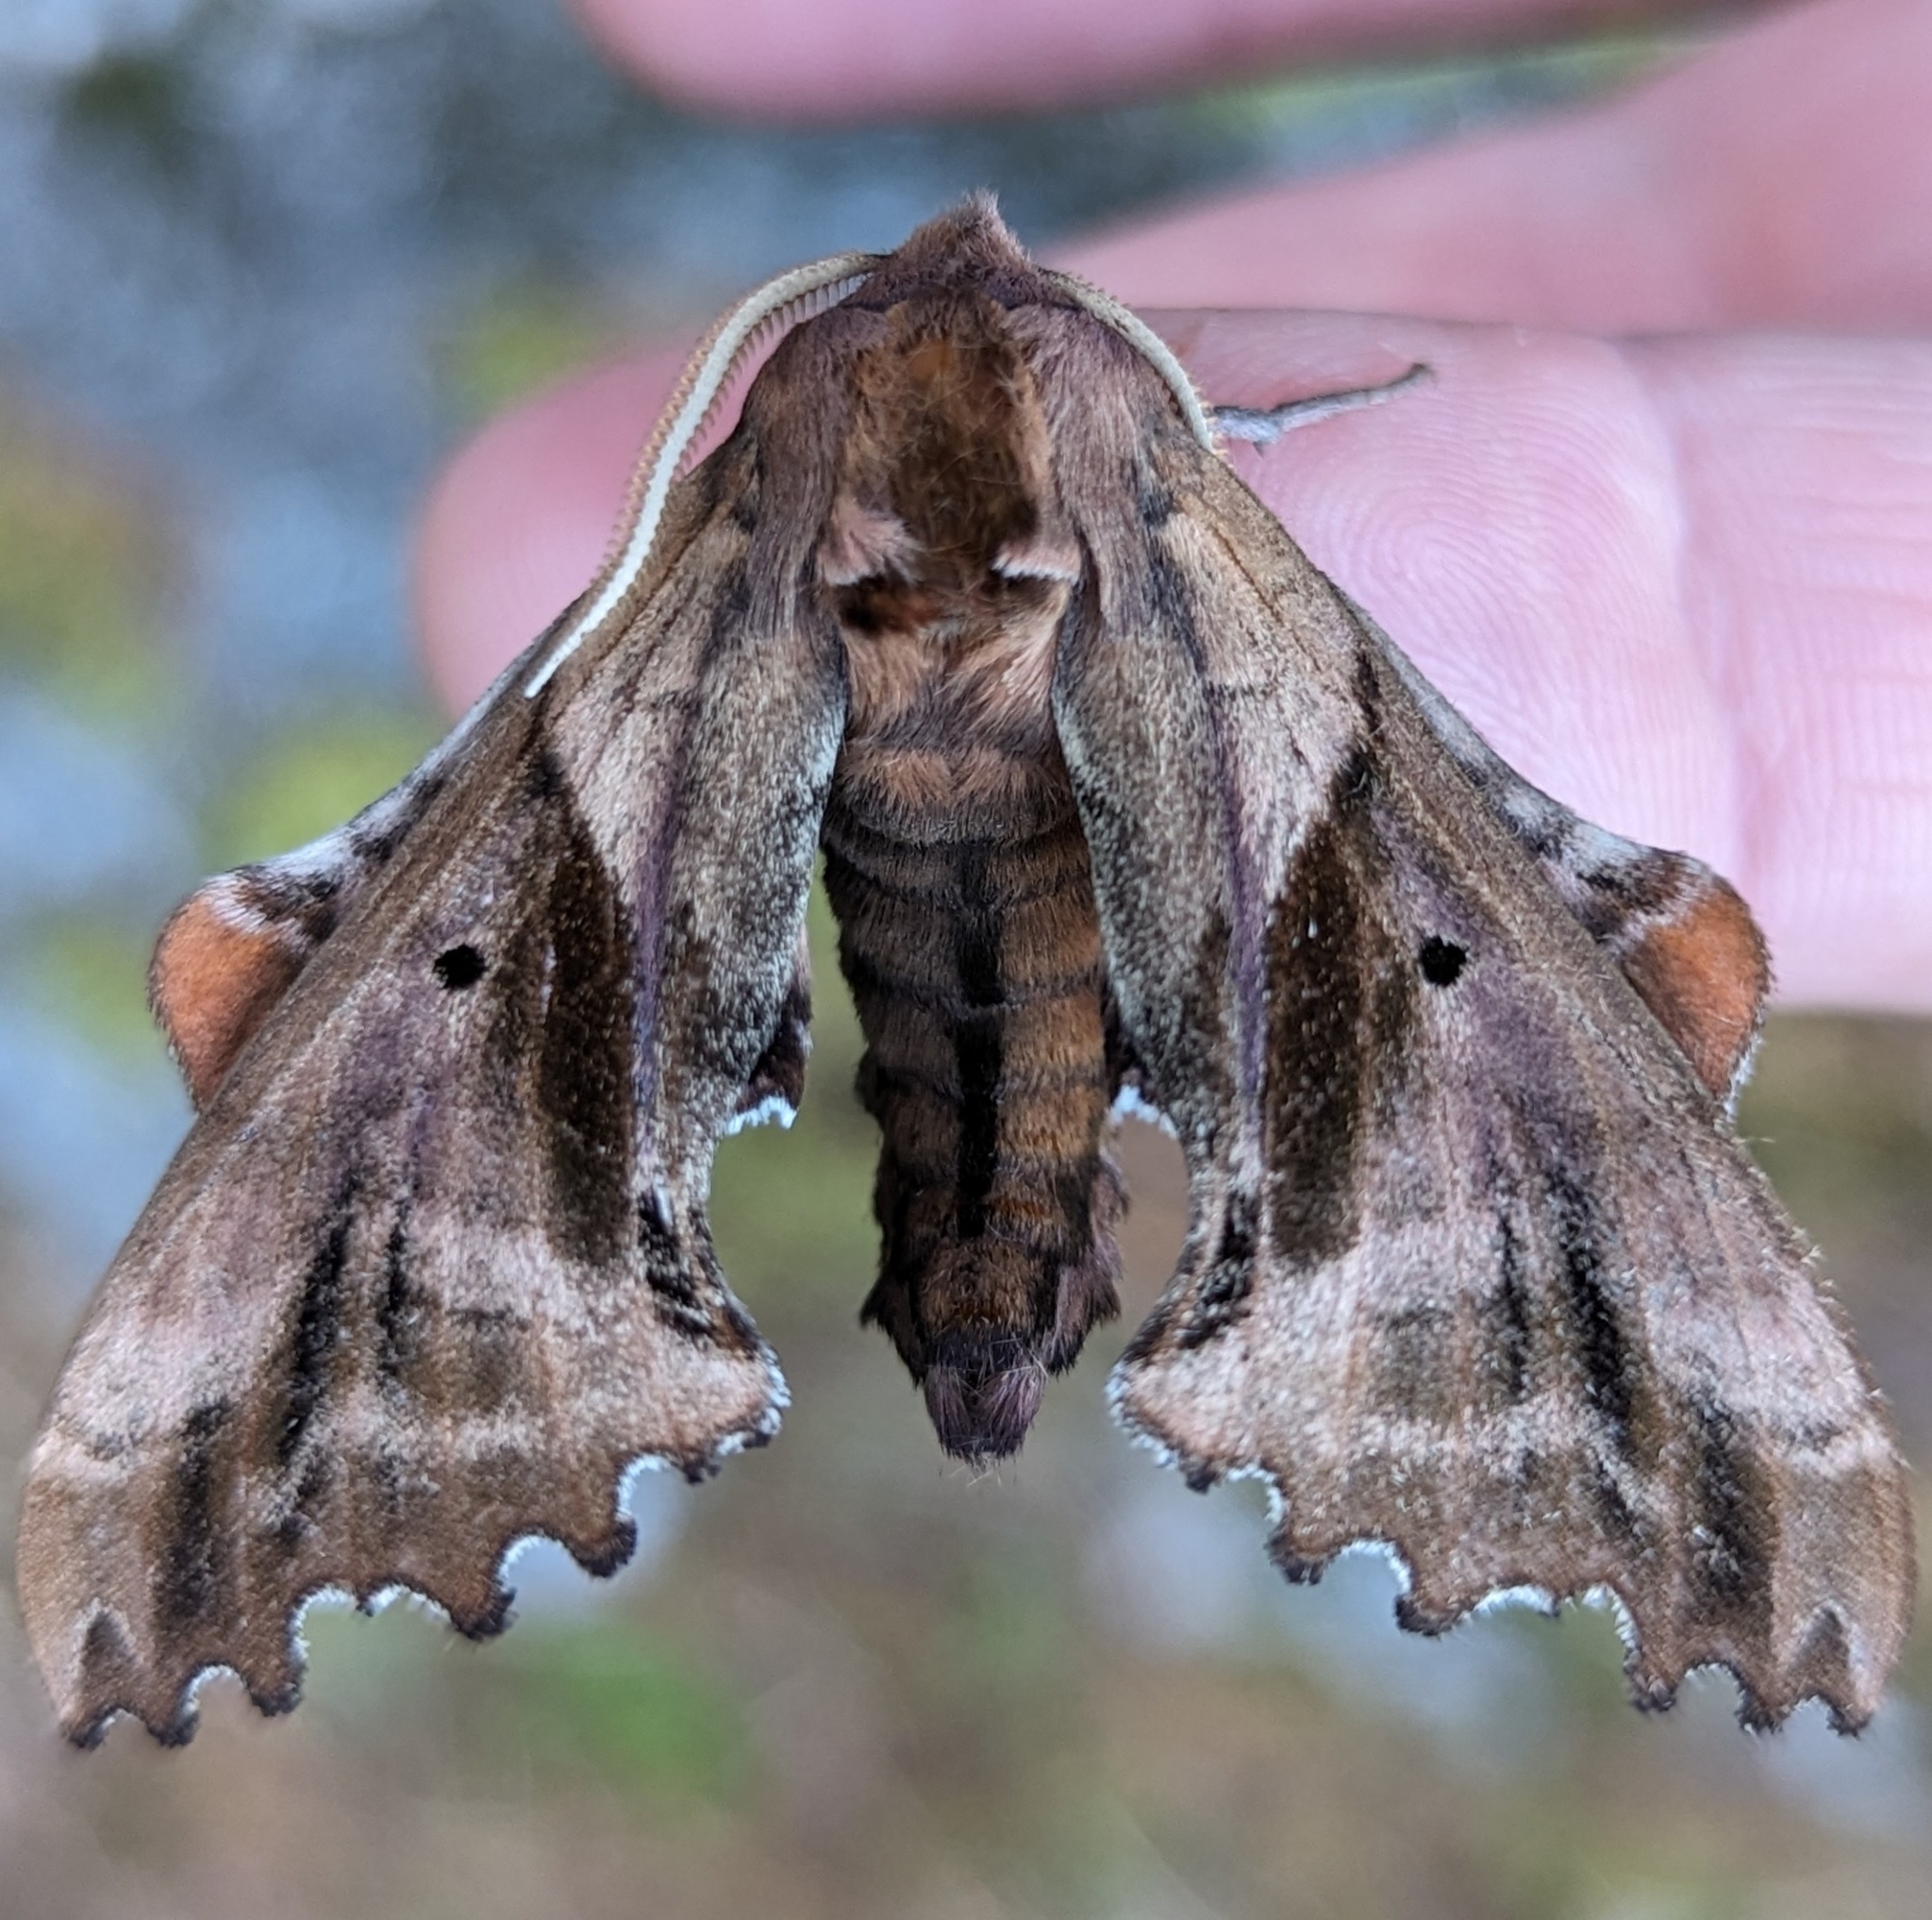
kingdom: Animalia
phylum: Arthropoda
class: Insecta
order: Lepidoptera
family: Sphingidae
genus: Paonias
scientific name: Paonias excaecata
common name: Blind-eyed sphinx
